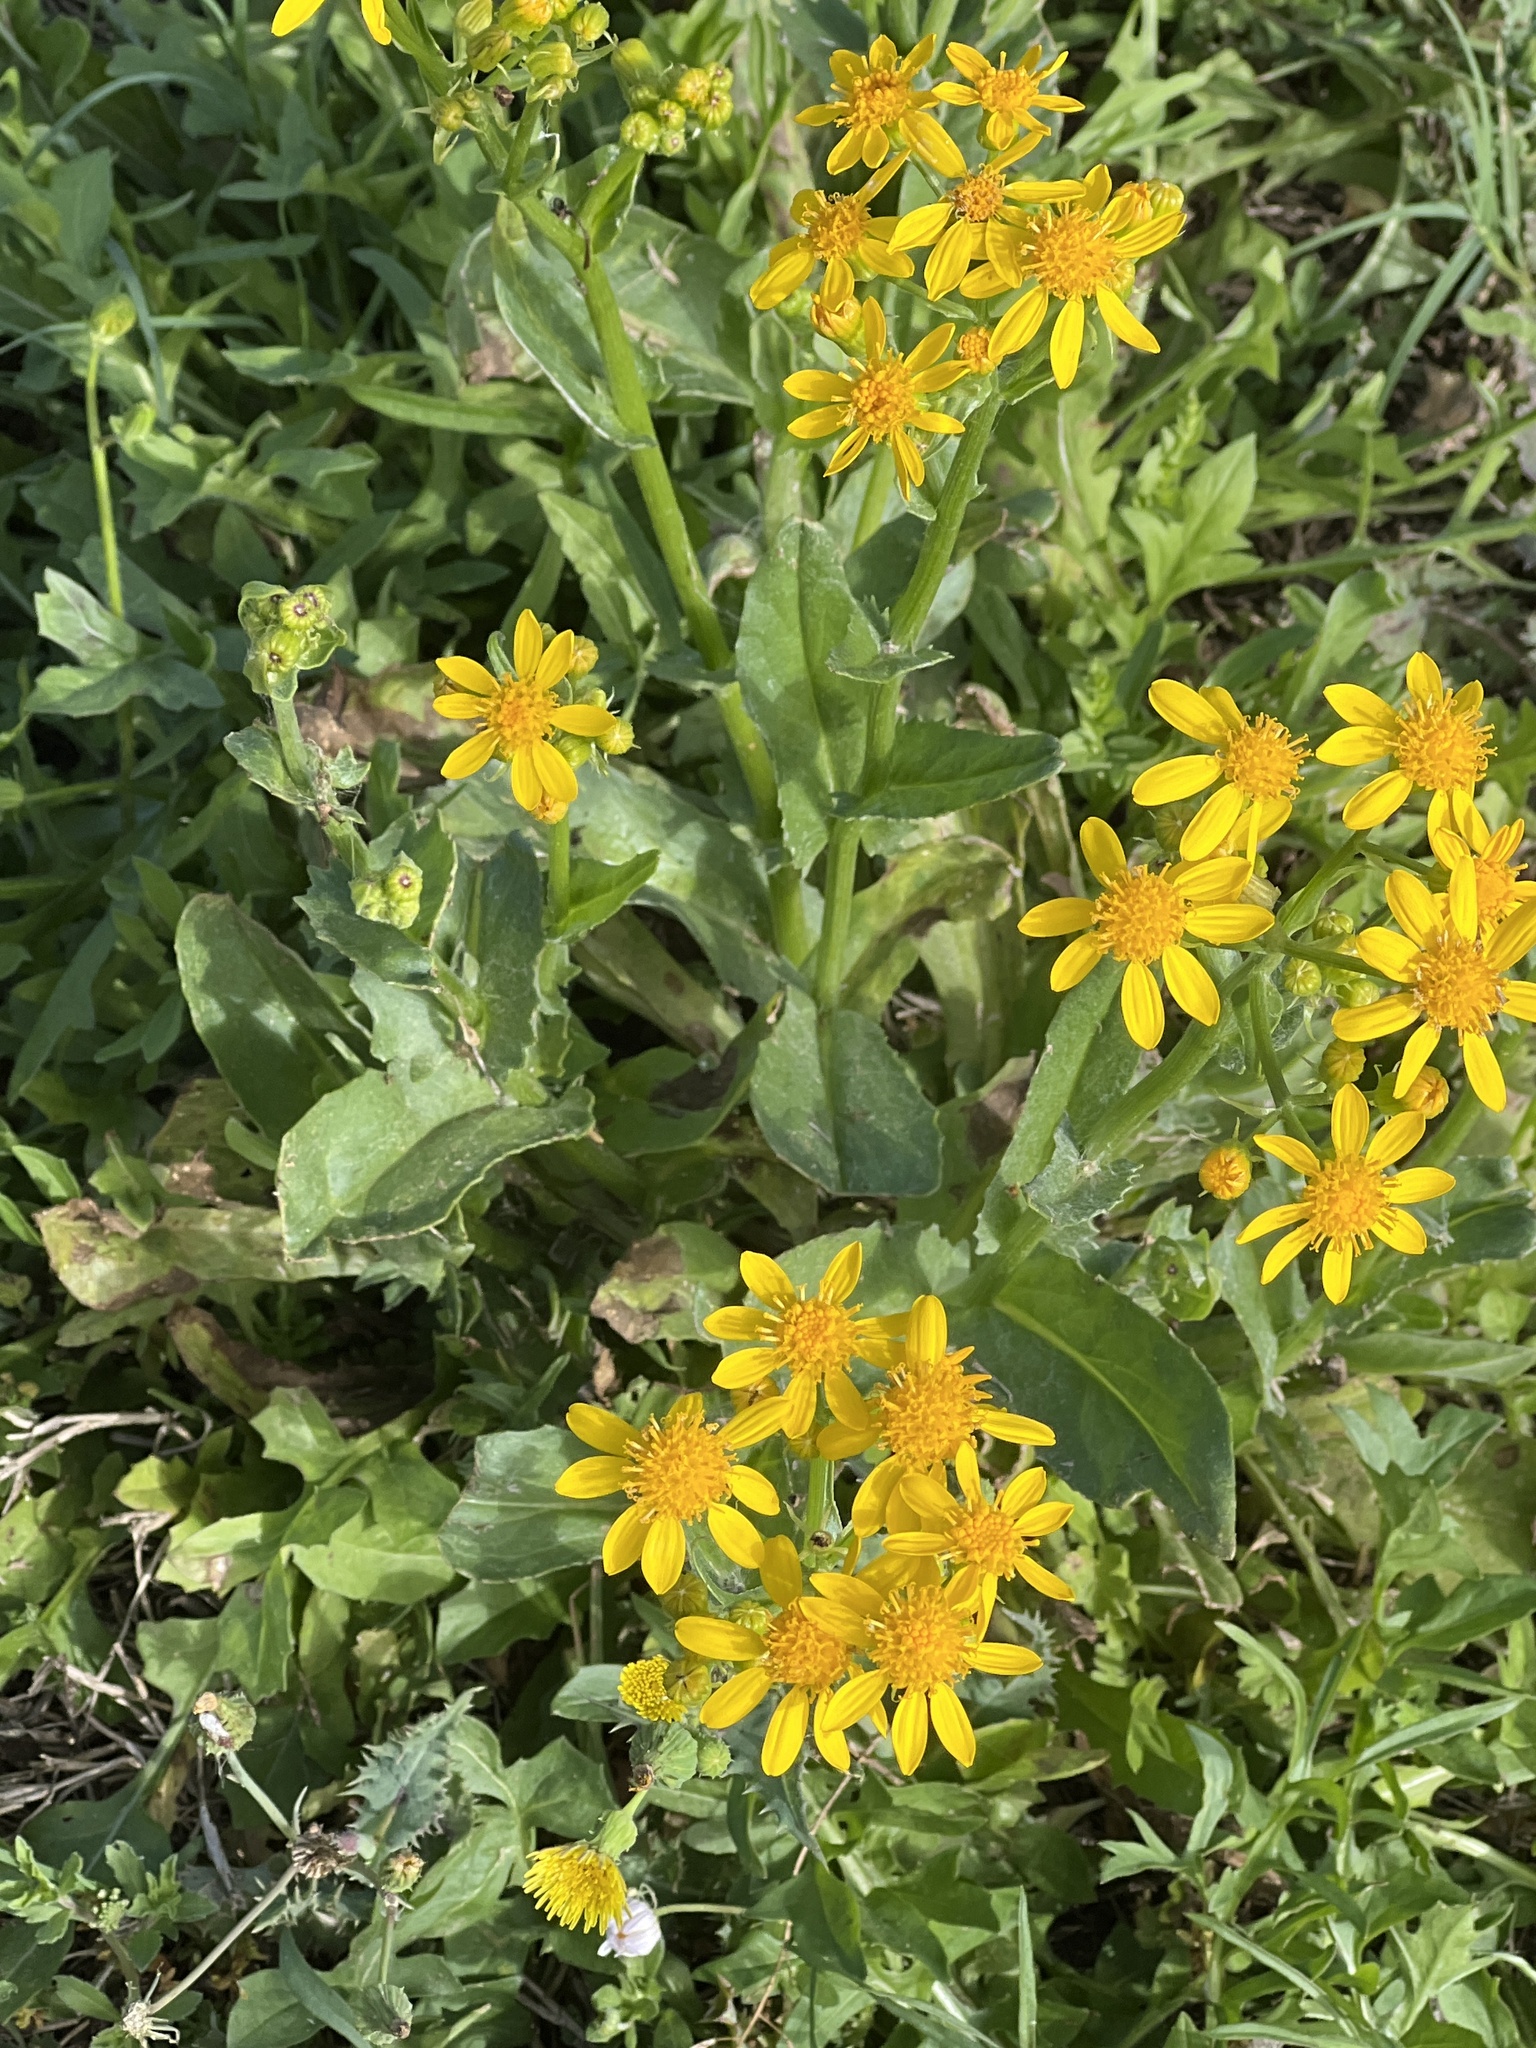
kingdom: Plantae
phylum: Tracheophyta
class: Magnoliopsida
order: Asterales
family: Asteraceae
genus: Senecio
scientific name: Senecio ampullaceus
